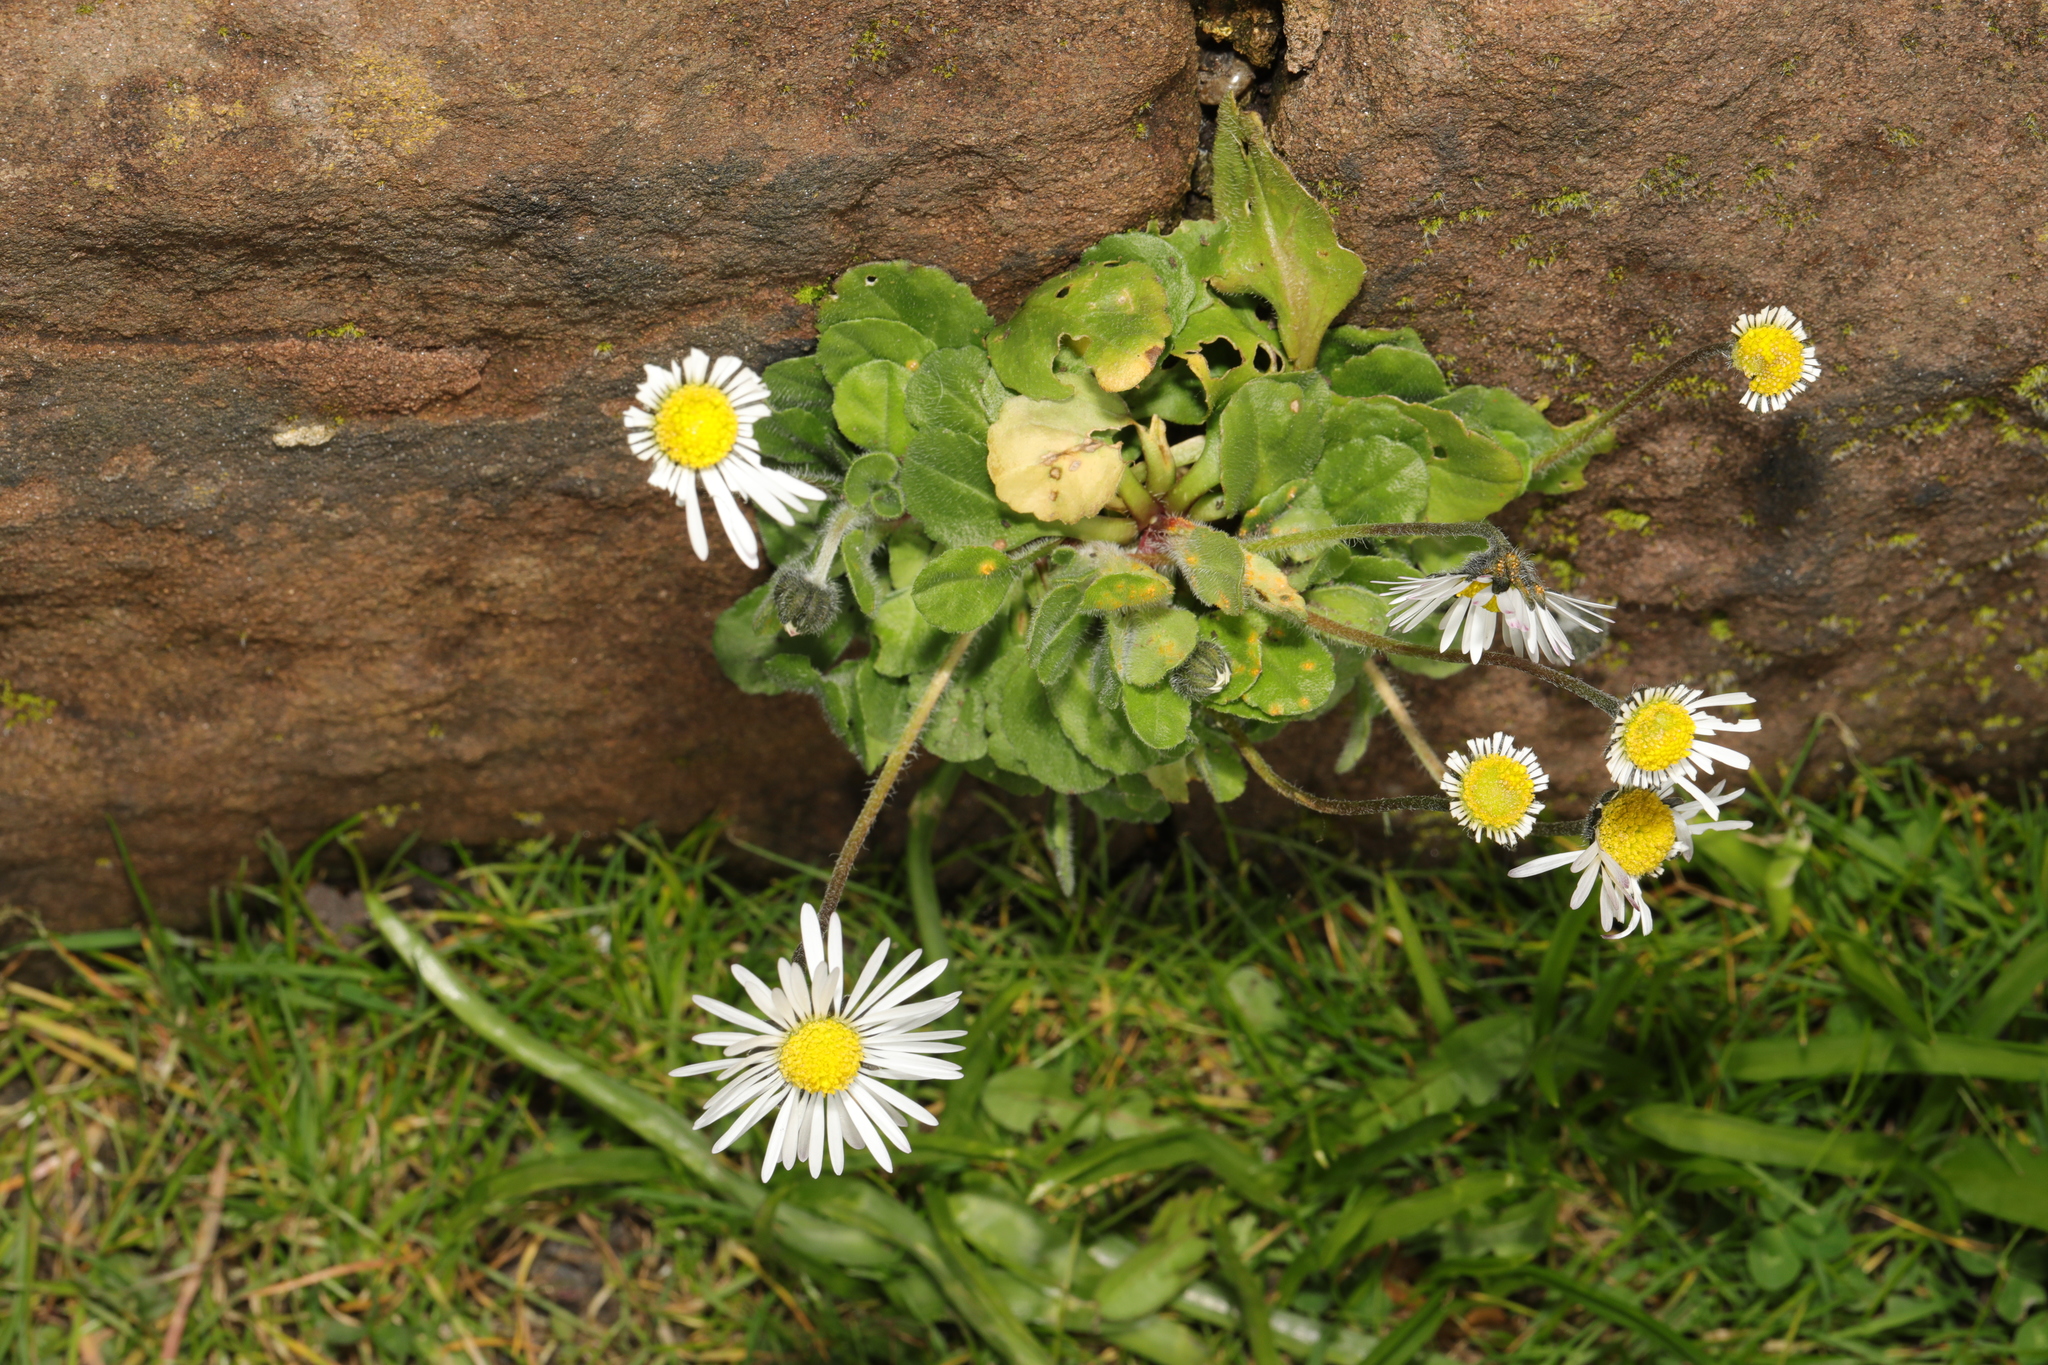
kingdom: Plantae
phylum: Tracheophyta
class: Magnoliopsida
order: Asterales
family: Asteraceae
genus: Bellis
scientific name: Bellis perennis
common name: Lawndaisy
